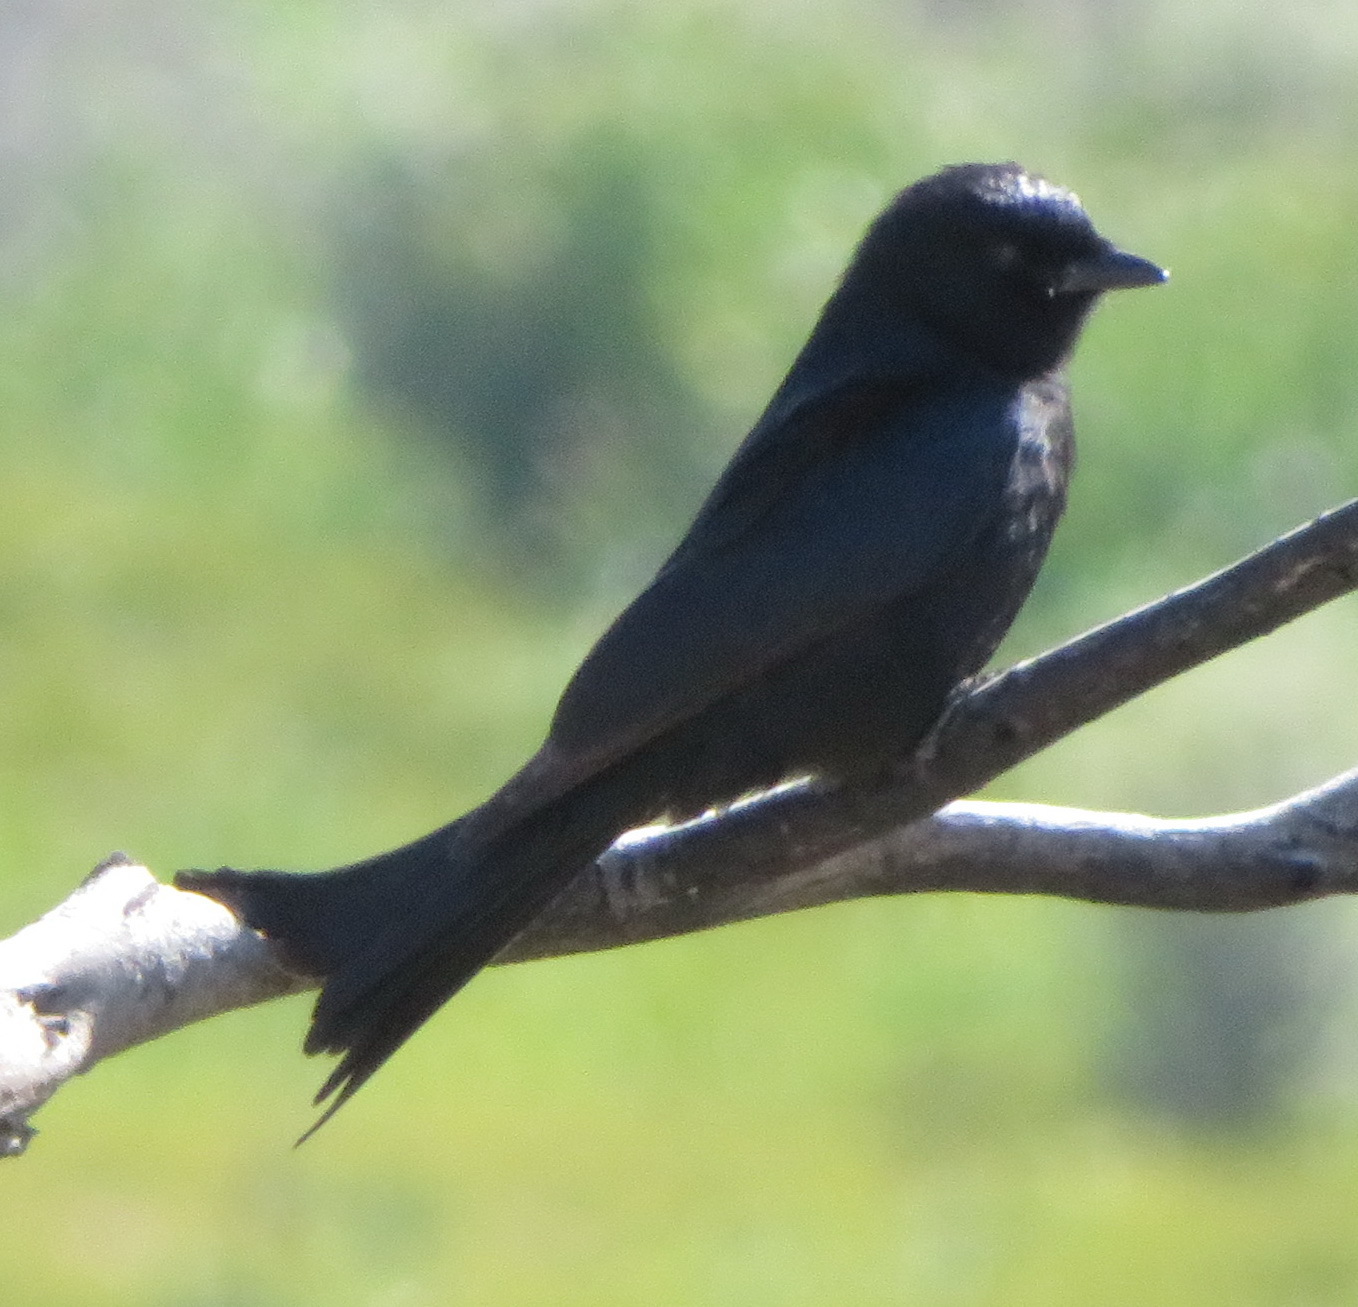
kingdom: Animalia
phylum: Chordata
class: Aves
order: Passeriformes
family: Dicruridae
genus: Dicrurus
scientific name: Dicrurus adsimilis
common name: Fork-tailed drongo
